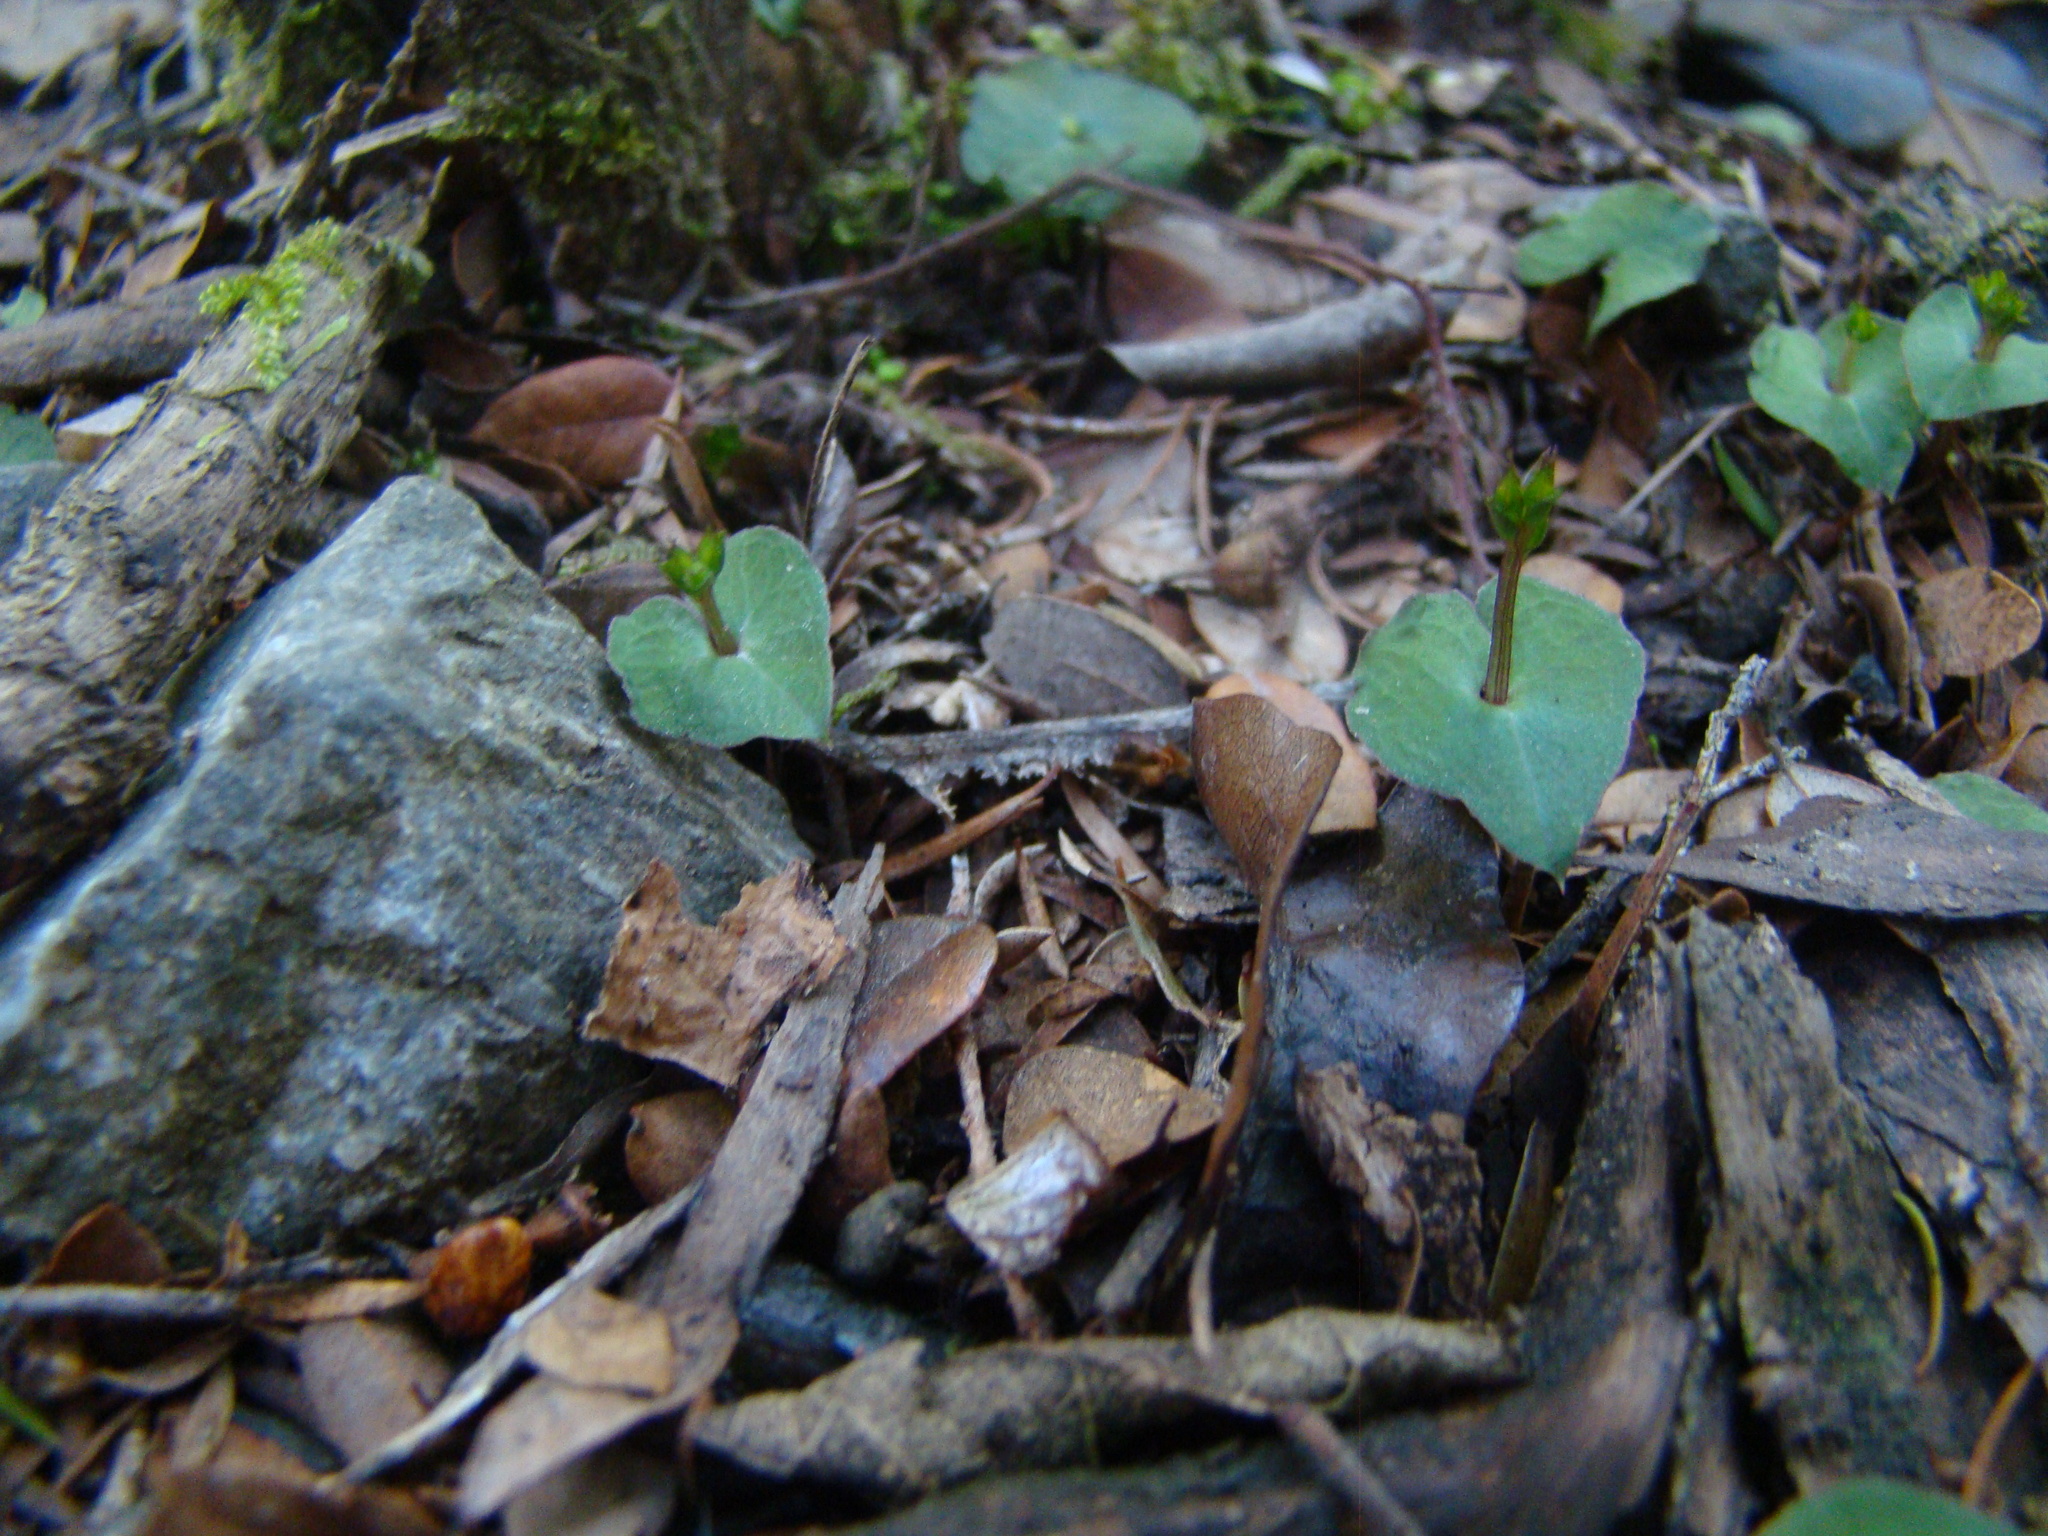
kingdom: Plantae
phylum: Tracheophyta
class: Liliopsida
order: Asparagales
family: Orchidaceae
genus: Acianthus
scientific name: Acianthus sinclairii
